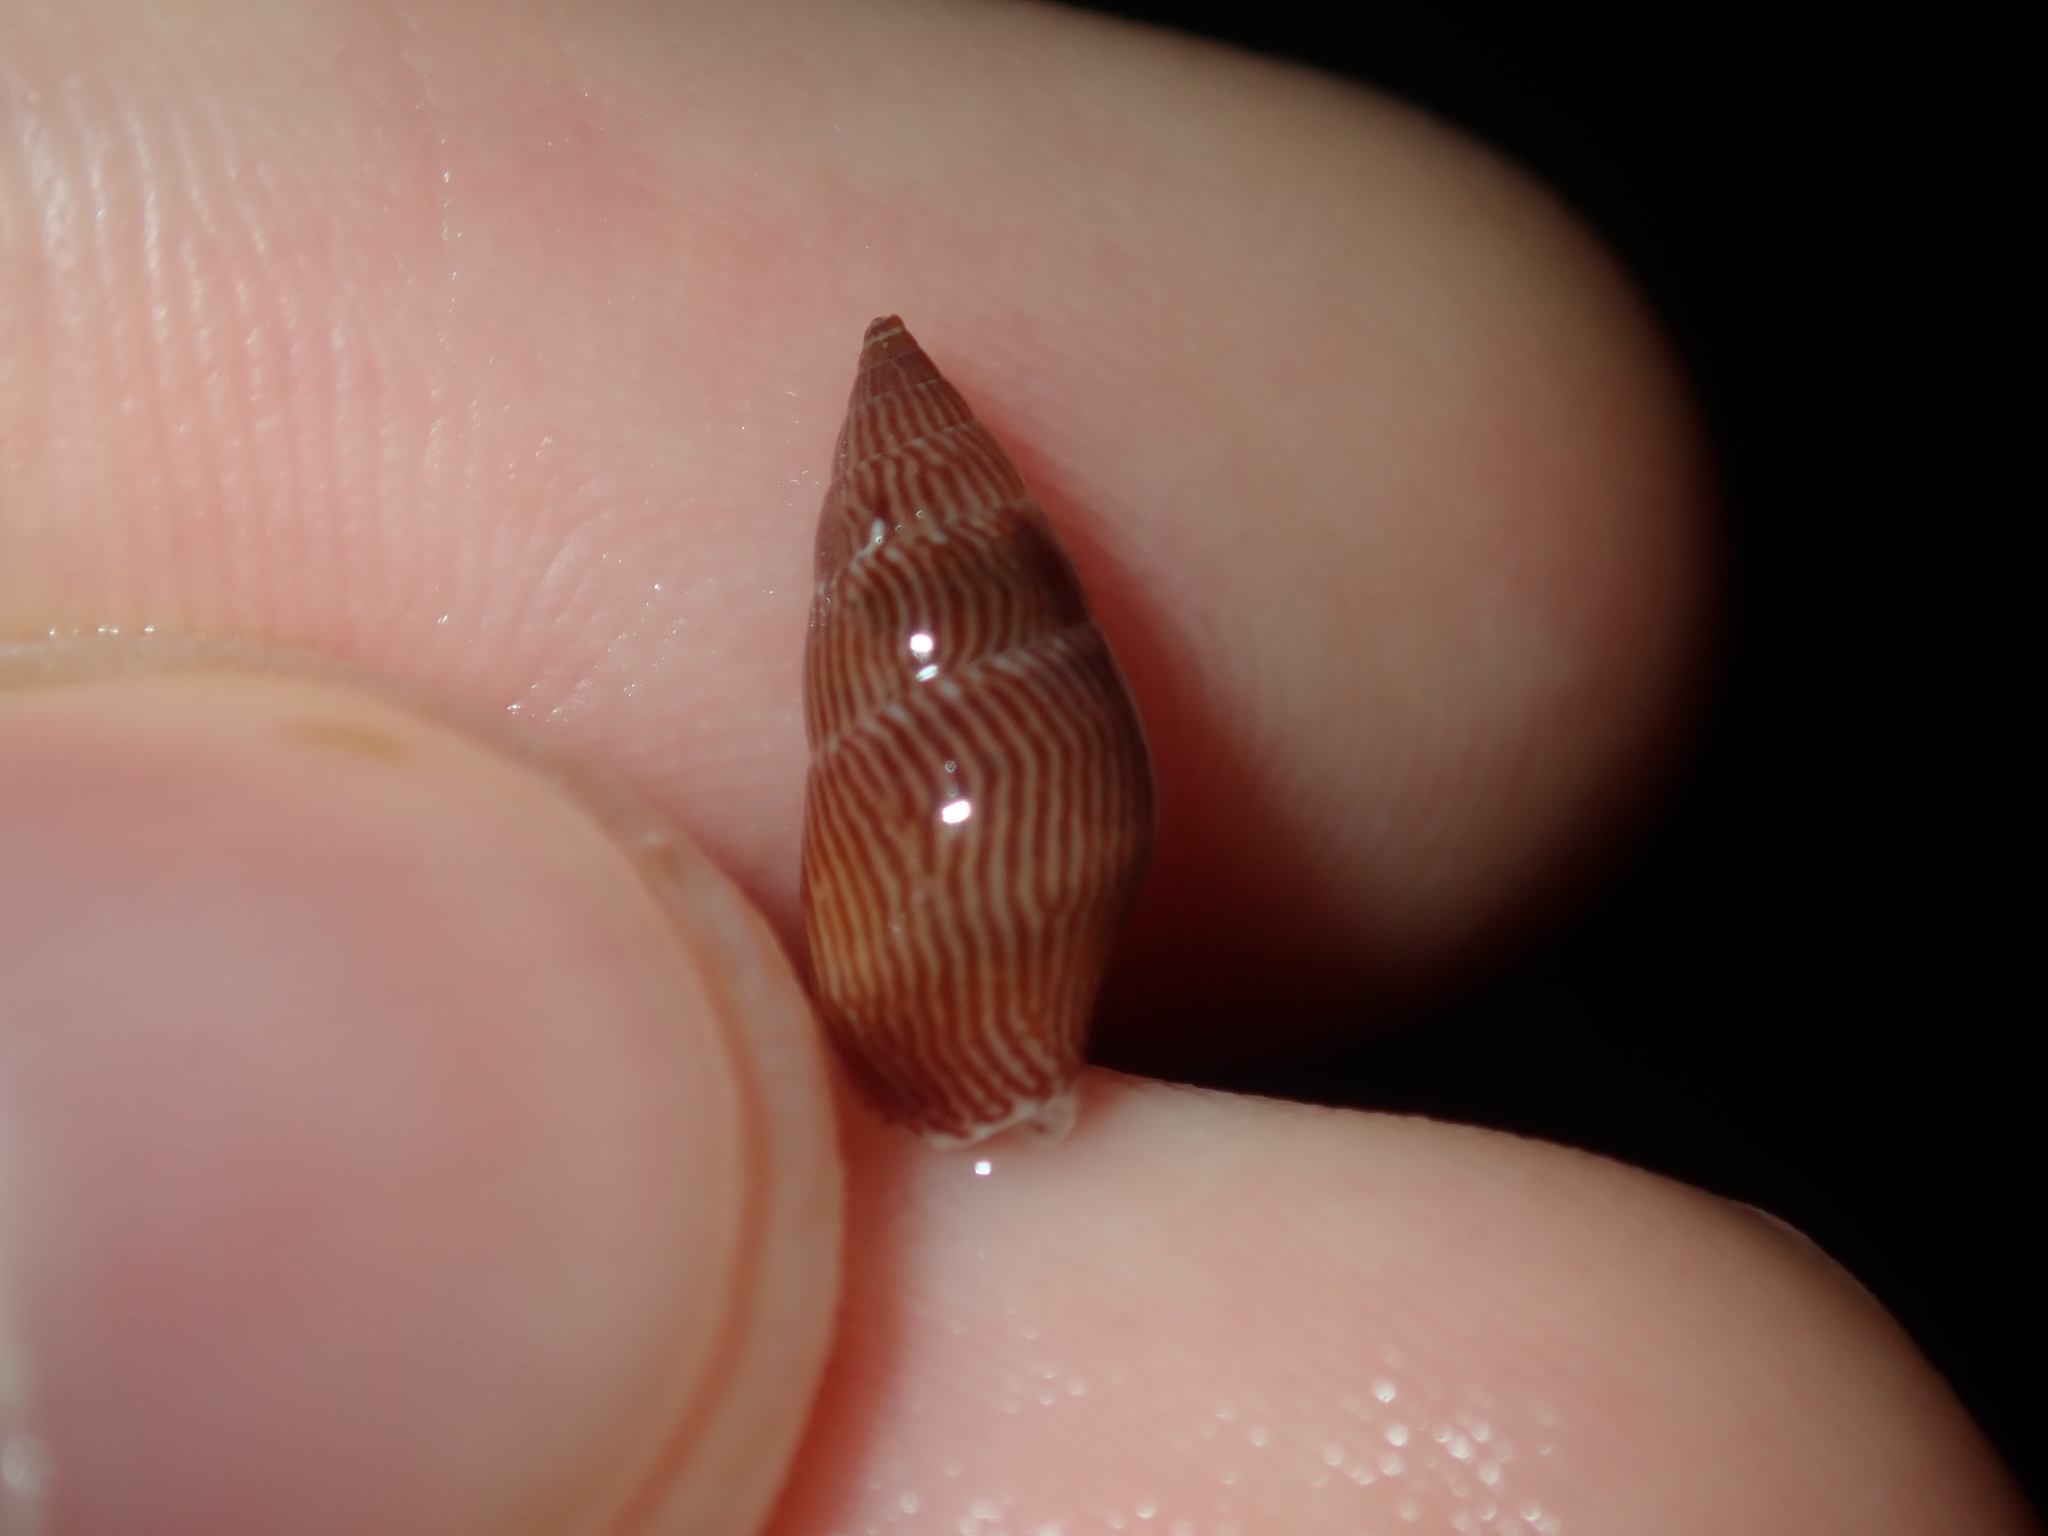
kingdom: Animalia
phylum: Mollusca
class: Gastropoda
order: Neogastropoda
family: Columbellidae
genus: Mitrella
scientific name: Mitrella bicincta
